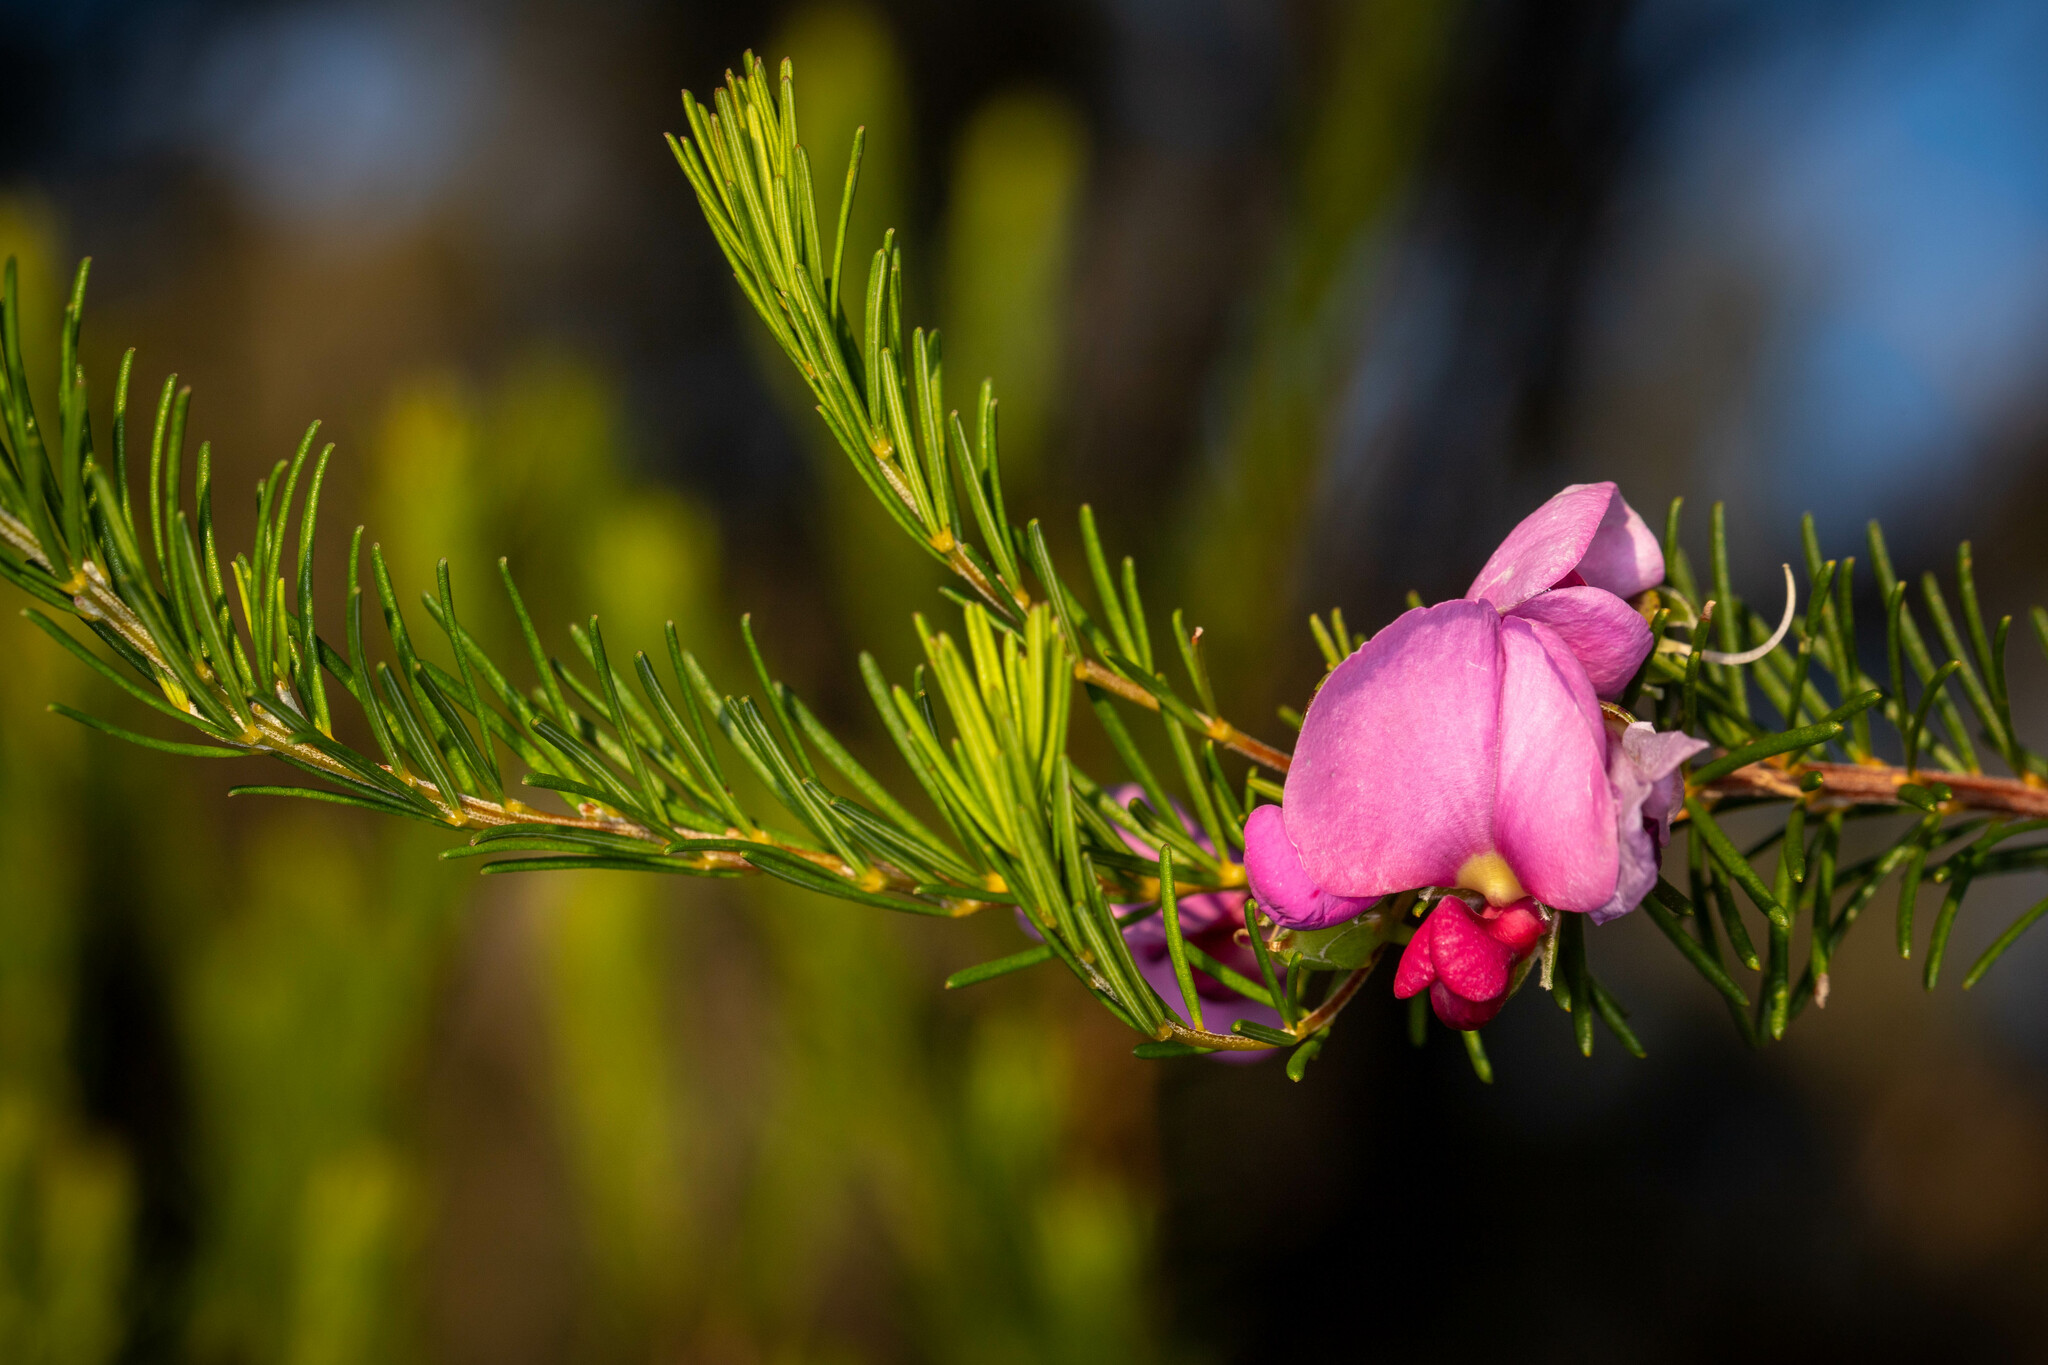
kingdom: Plantae
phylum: Tracheophyta
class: Magnoliopsida
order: Fabales
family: Fabaceae
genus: Gompholobium
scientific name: Gompholobium scabrum
